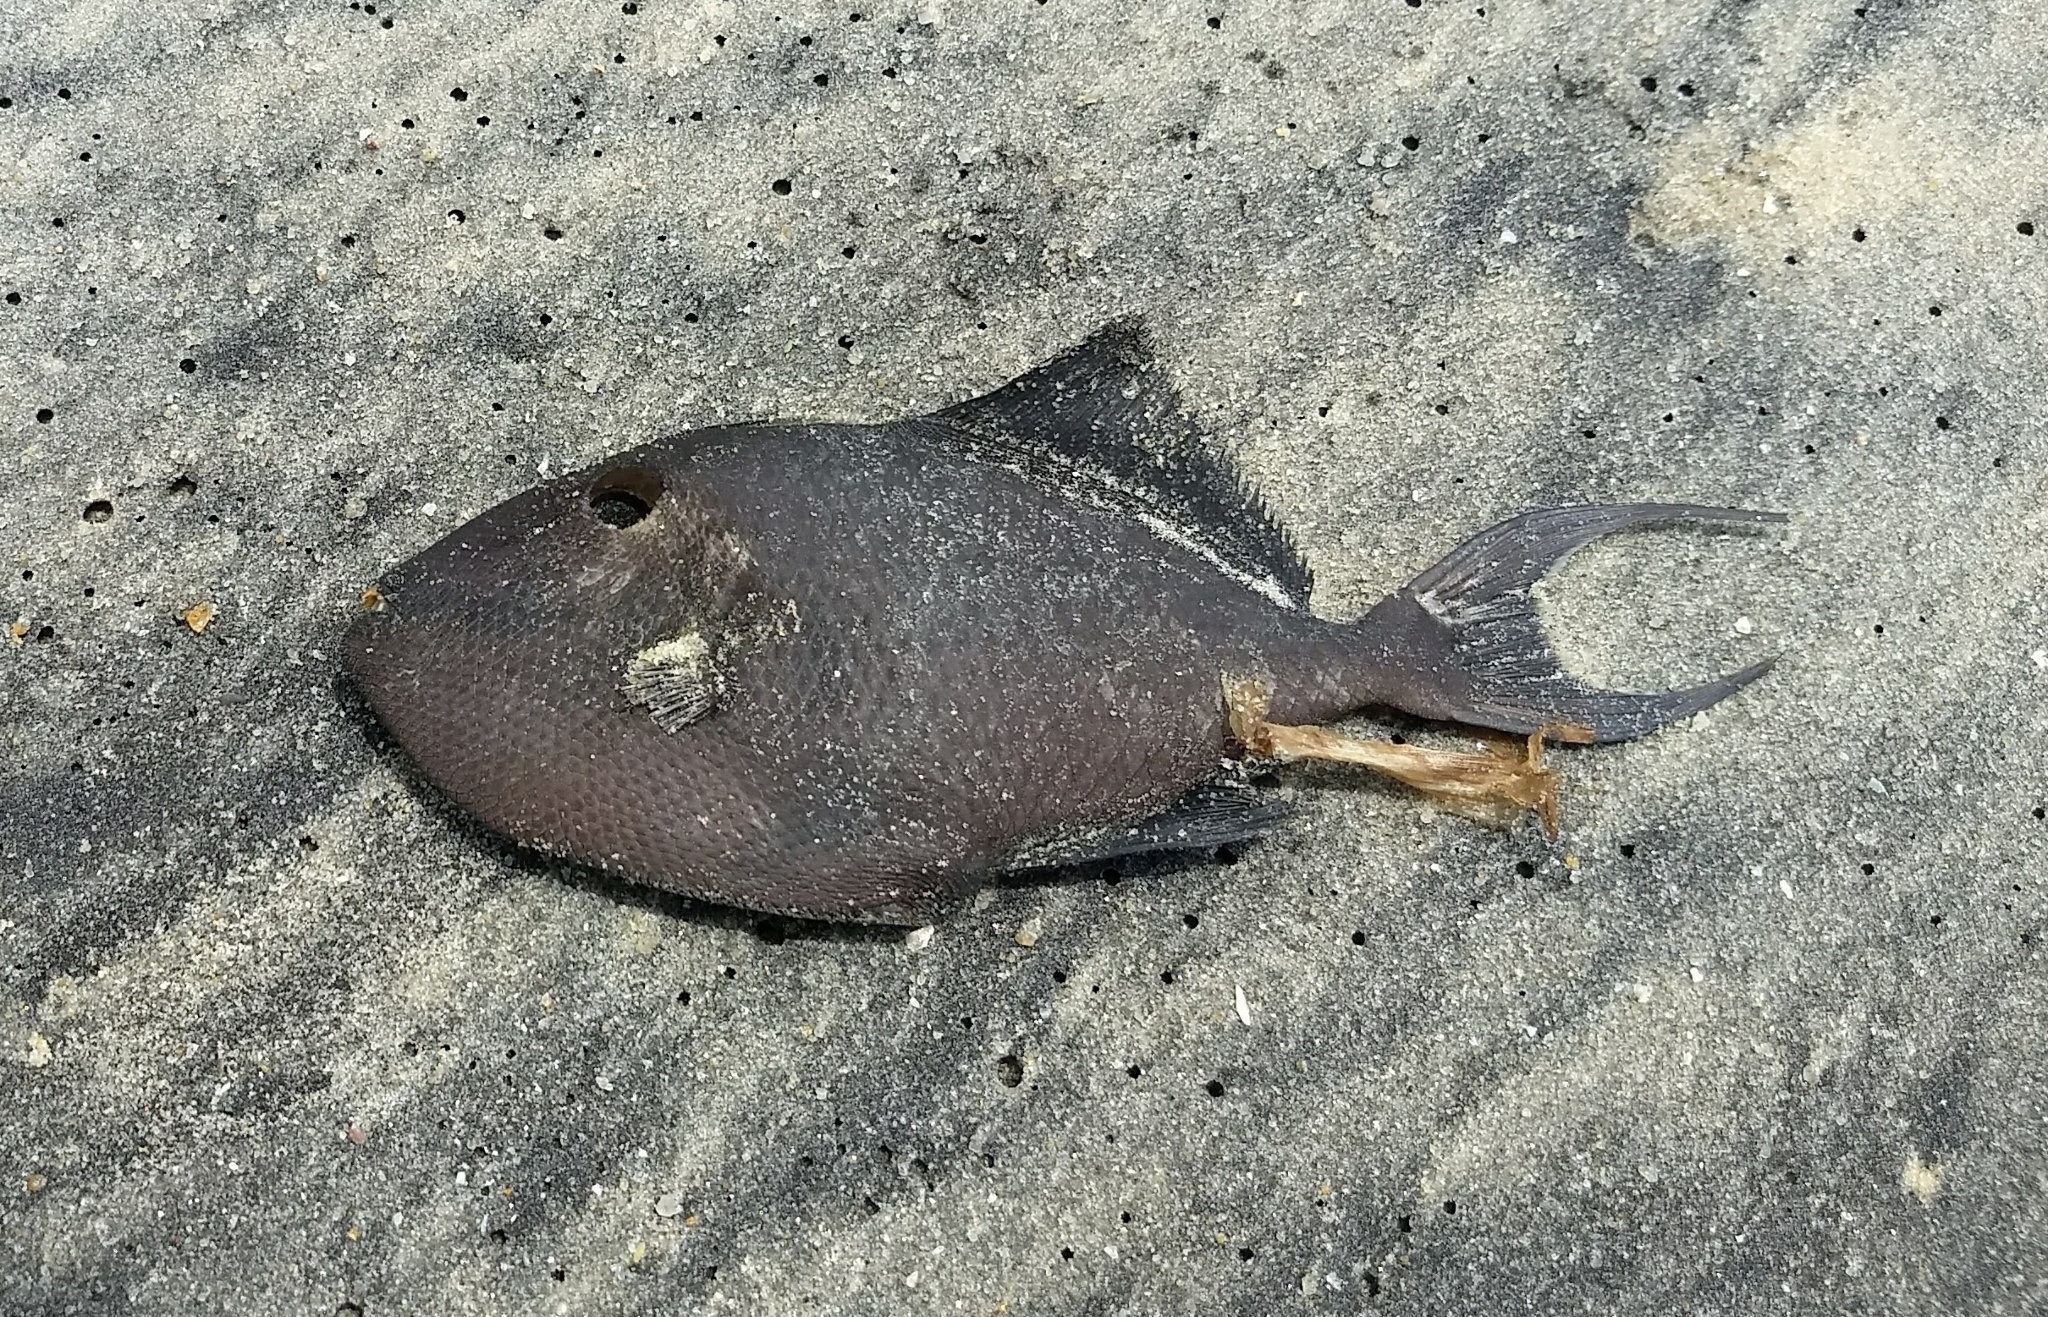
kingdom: Animalia
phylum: Chordata
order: Tetraodontiformes
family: Balistidae
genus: Odonus
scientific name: Odonus niger
